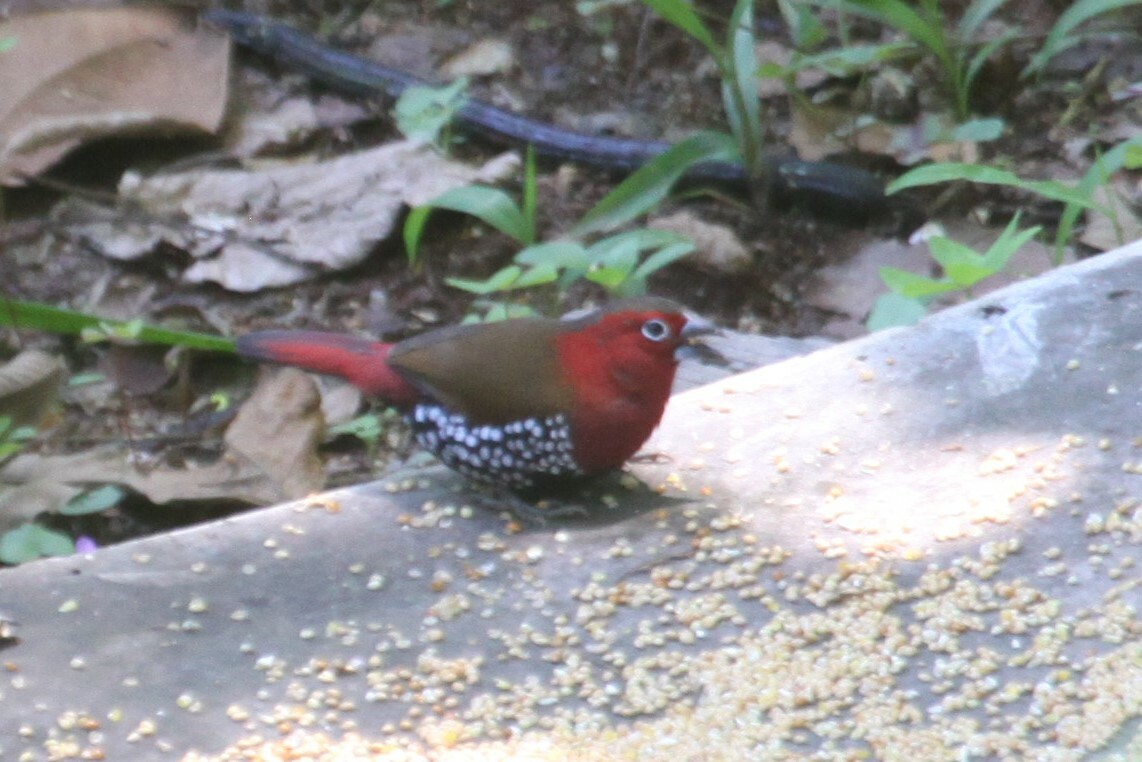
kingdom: Animalia
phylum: Chordata
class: Aves
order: Passeriformes
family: Estrildidae
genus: Hypargos
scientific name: Hypargos niveoguttatus
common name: Red-throated twinspot
